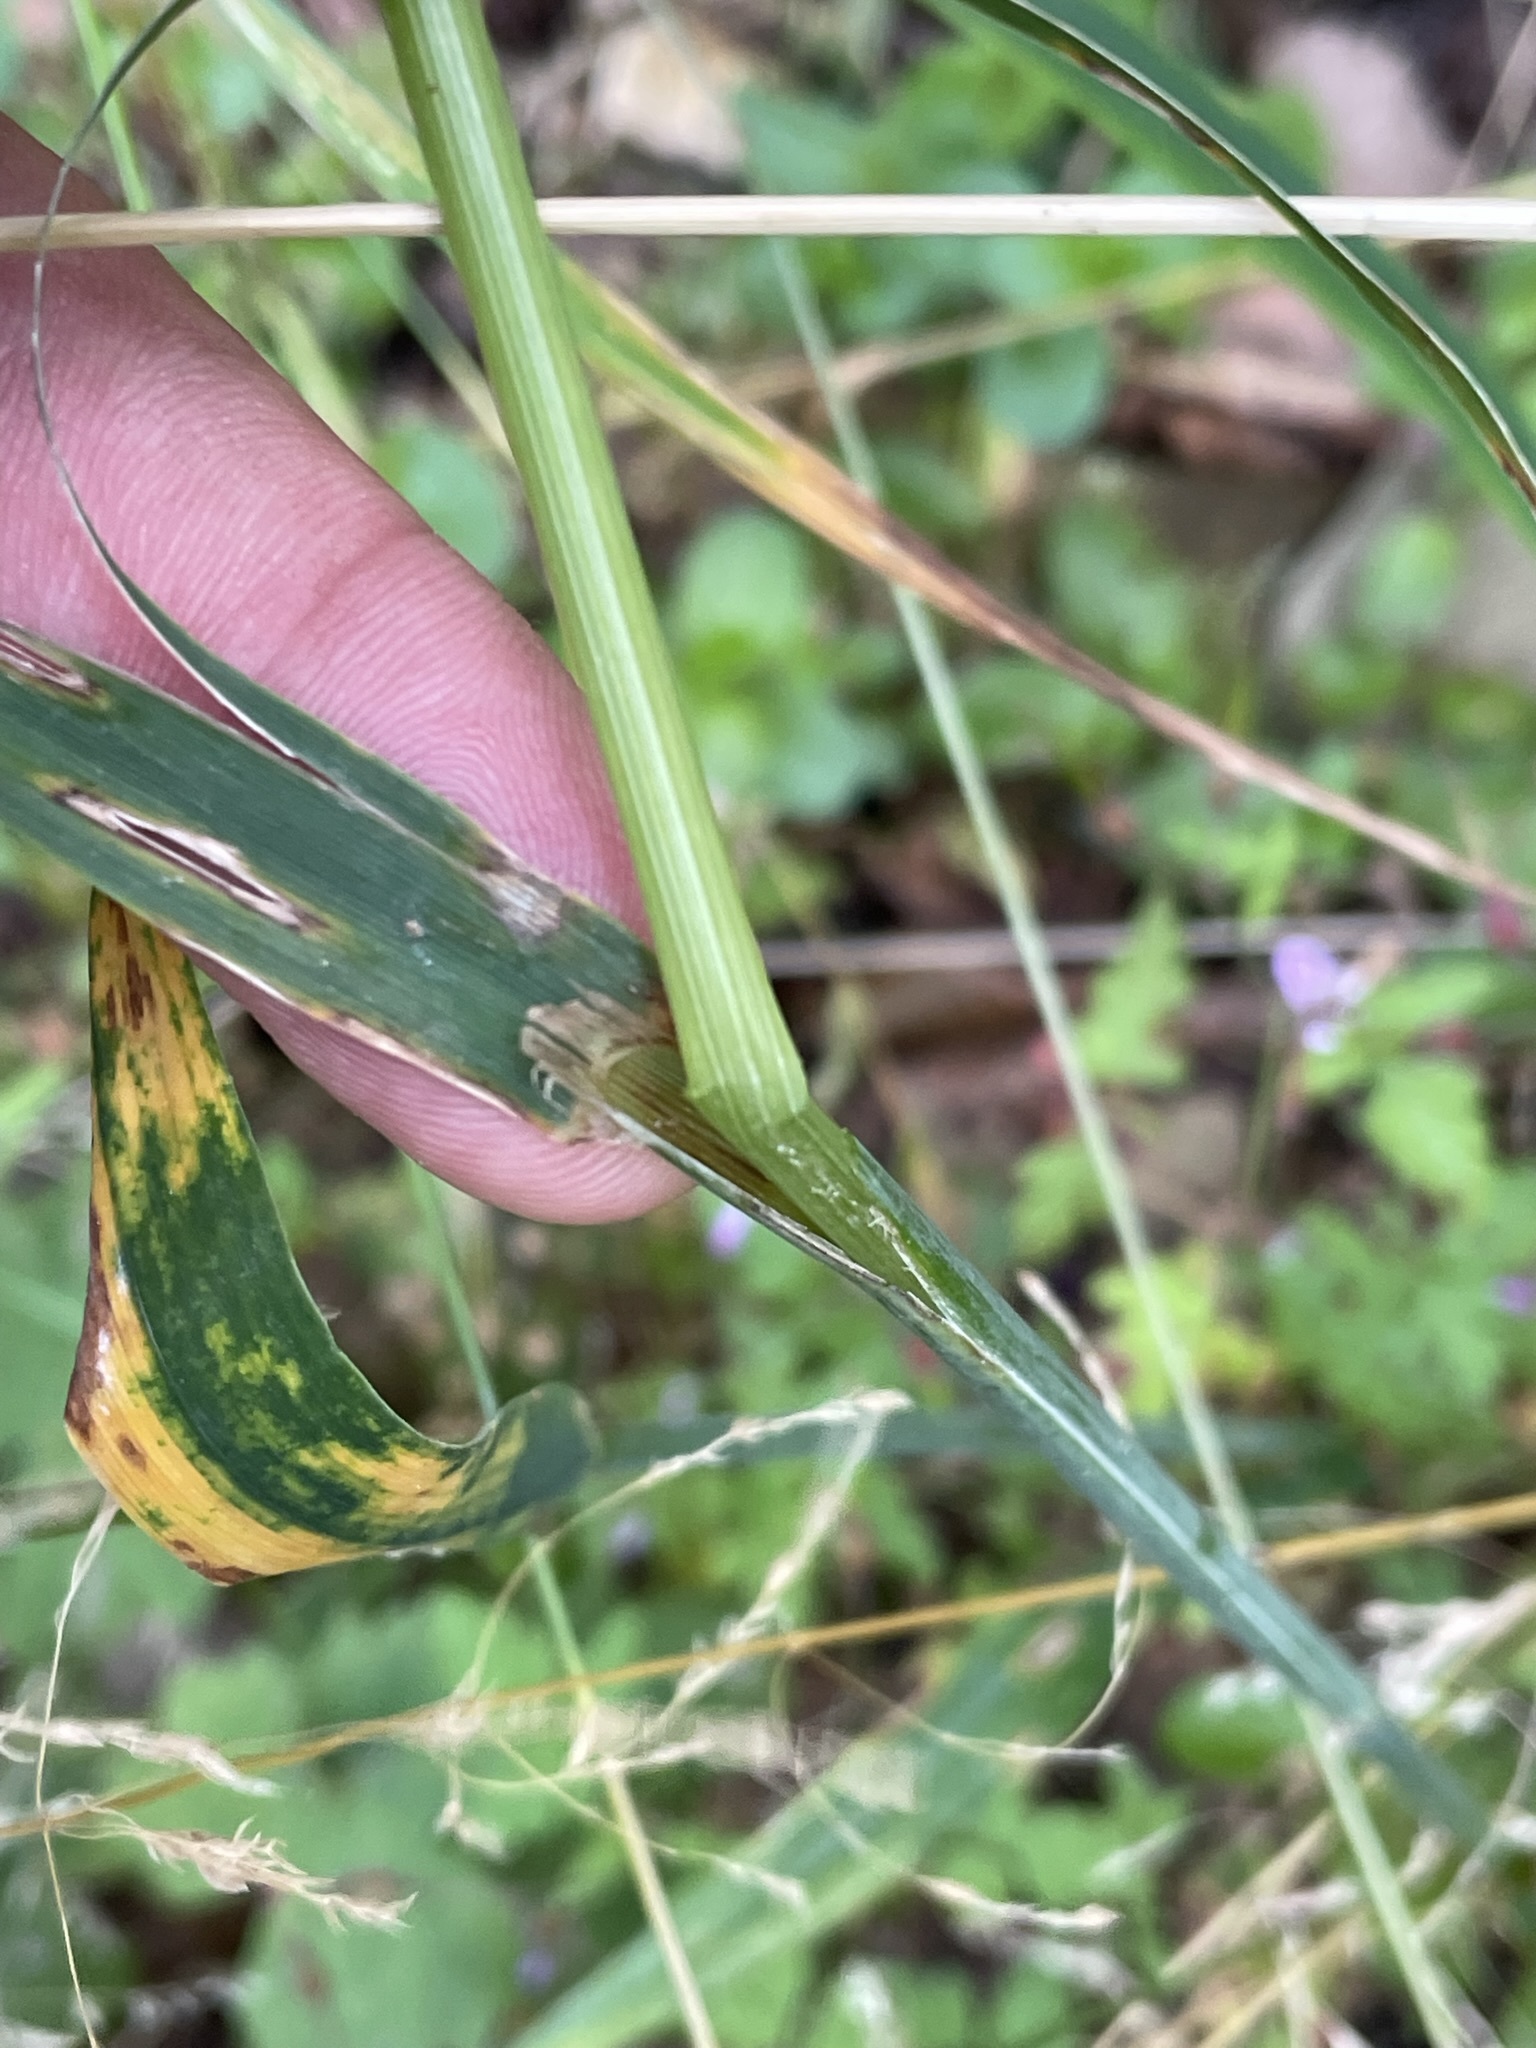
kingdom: Plantae
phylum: Tracheophyta
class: Liliopsida
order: Poales
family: Poaceae
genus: Milium
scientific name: Milium effusum
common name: Wood millet
